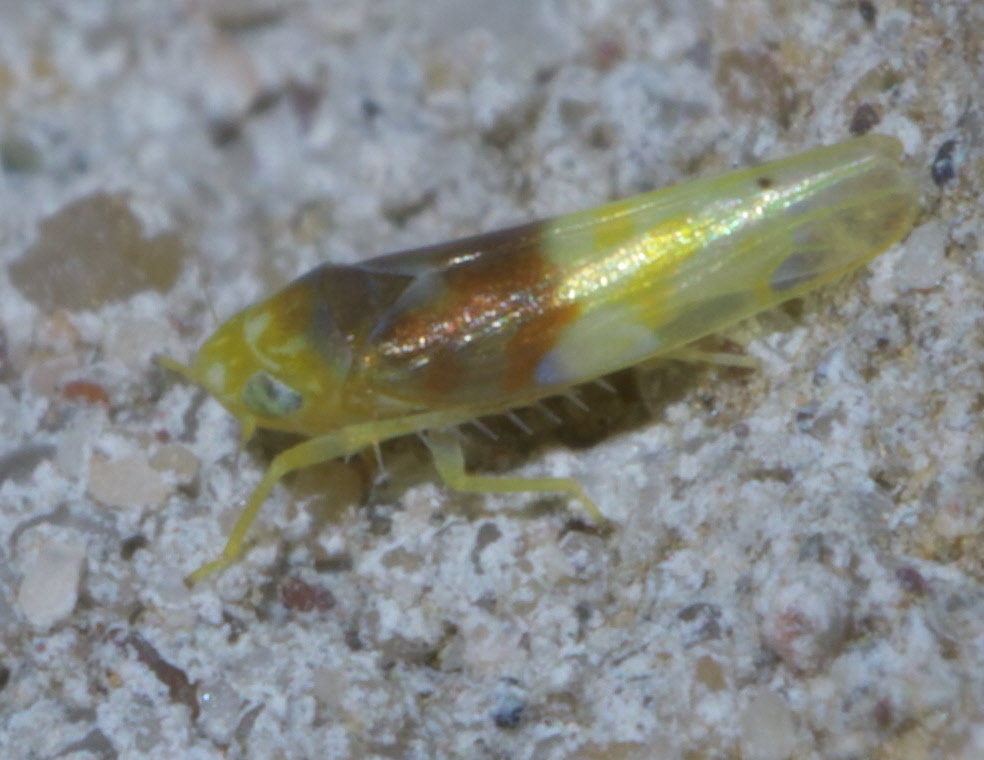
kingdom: Animalia
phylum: Arthropoda
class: Insecta
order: Hemiptera
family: Cicadellidae
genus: Eratoneura
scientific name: Eratoneura basilaris
